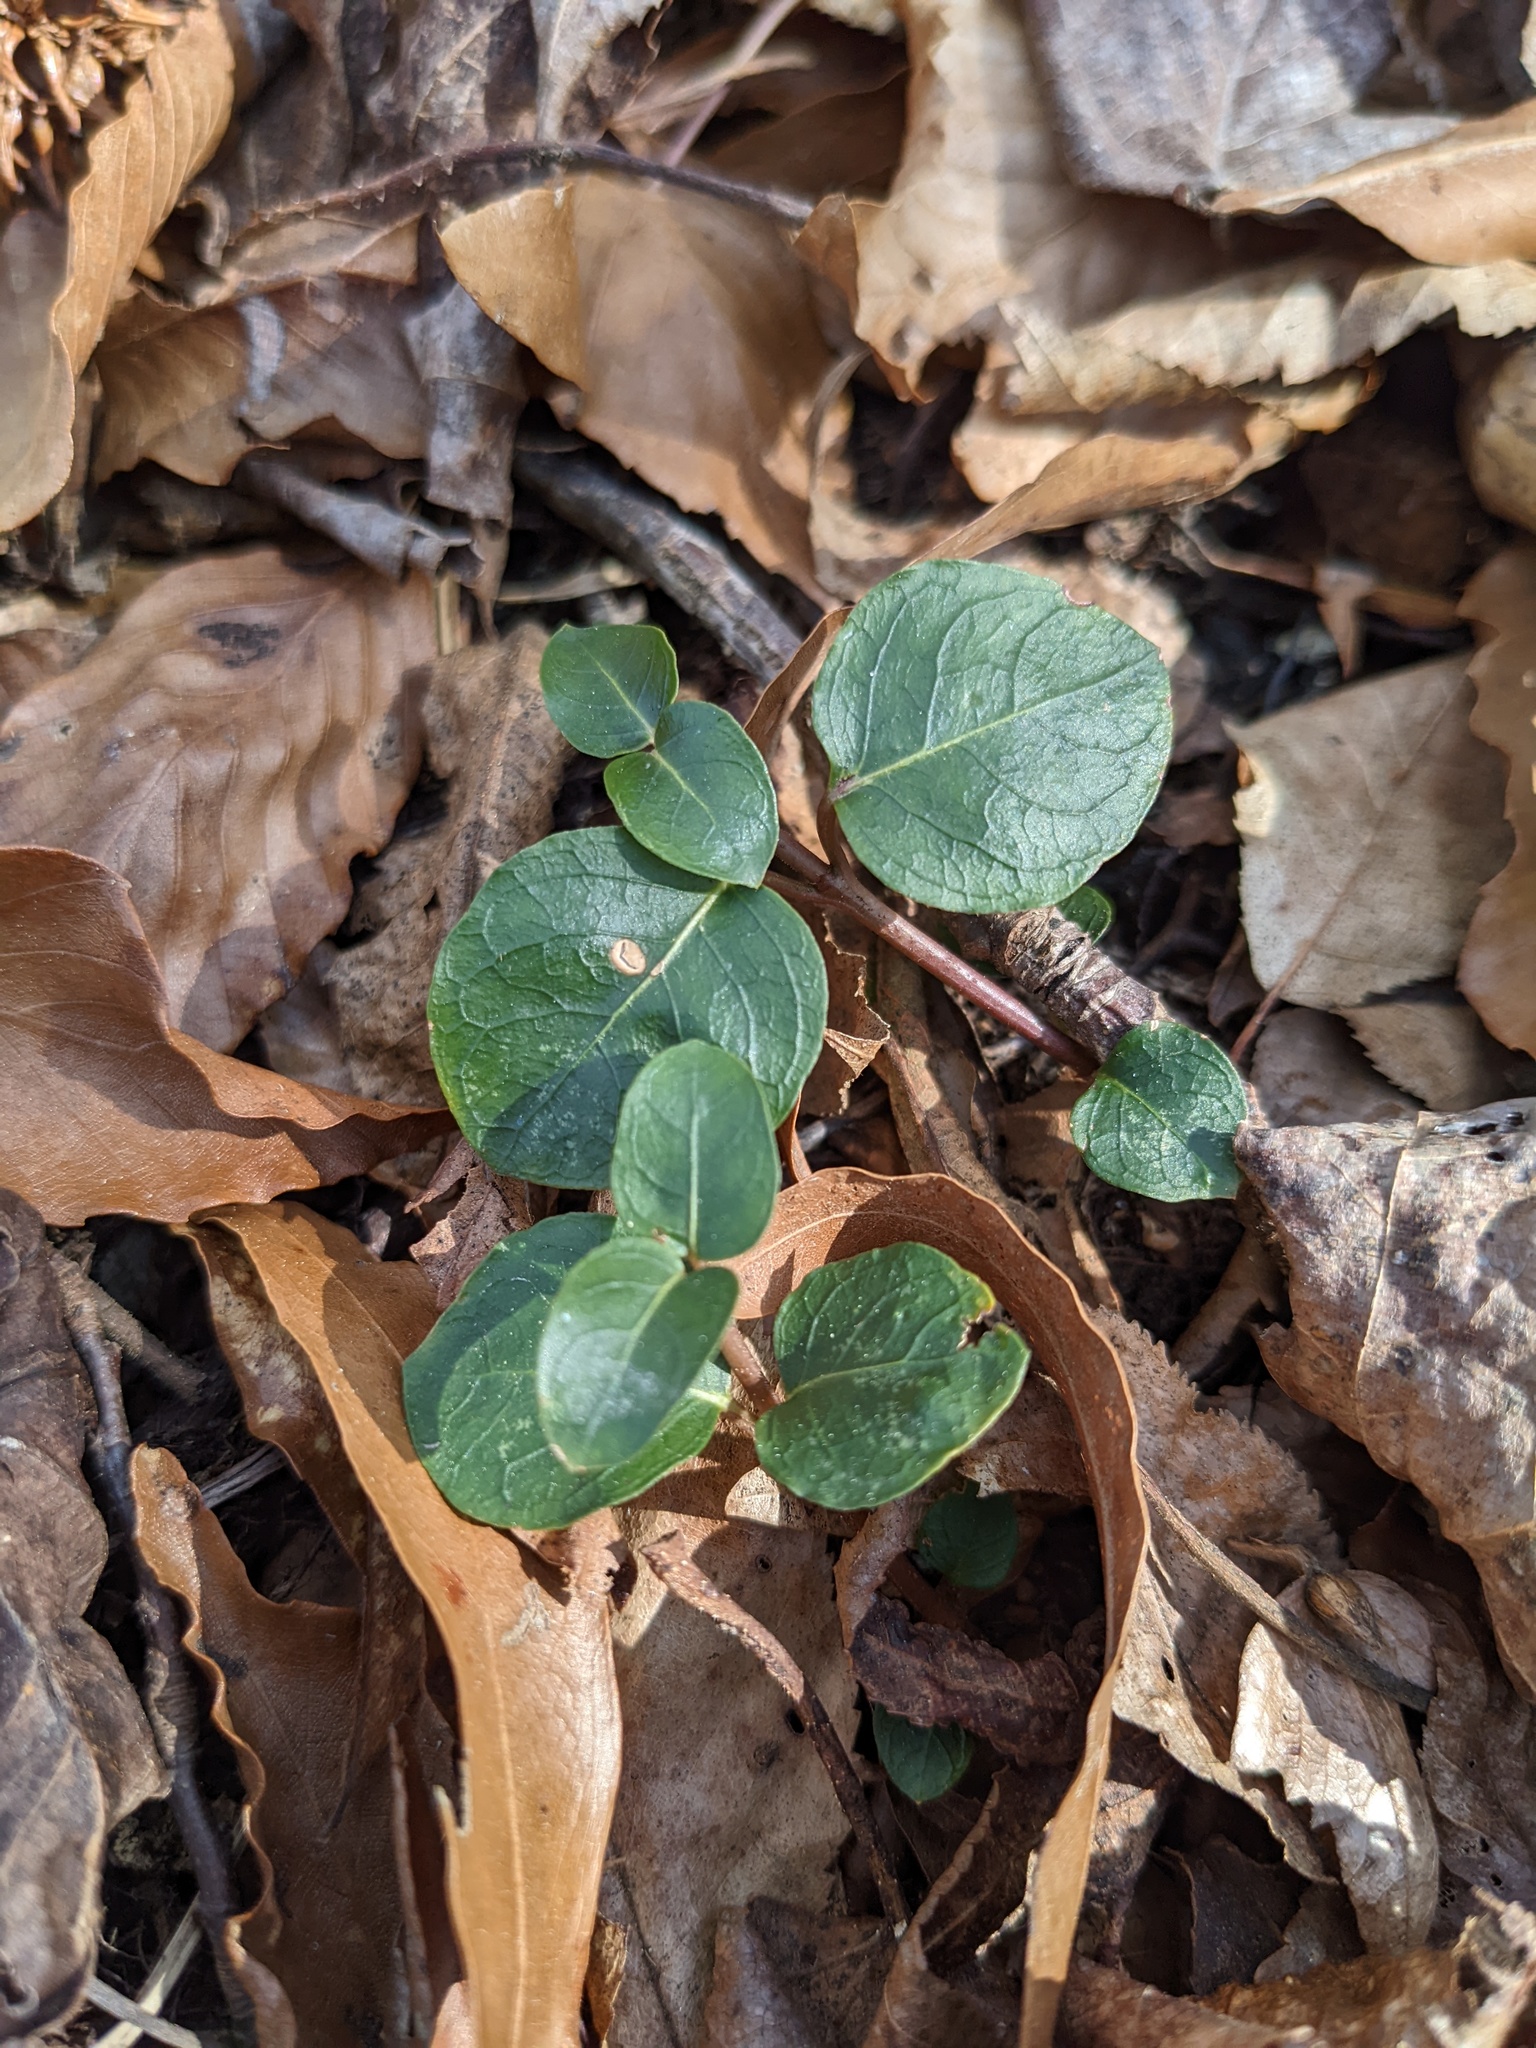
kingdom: Plantae
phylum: Tracheophyta
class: Magnoliopsida
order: Gentianales
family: Rubiaceae
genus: Mitchella
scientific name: Mitchella repens
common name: Partridge-berry
